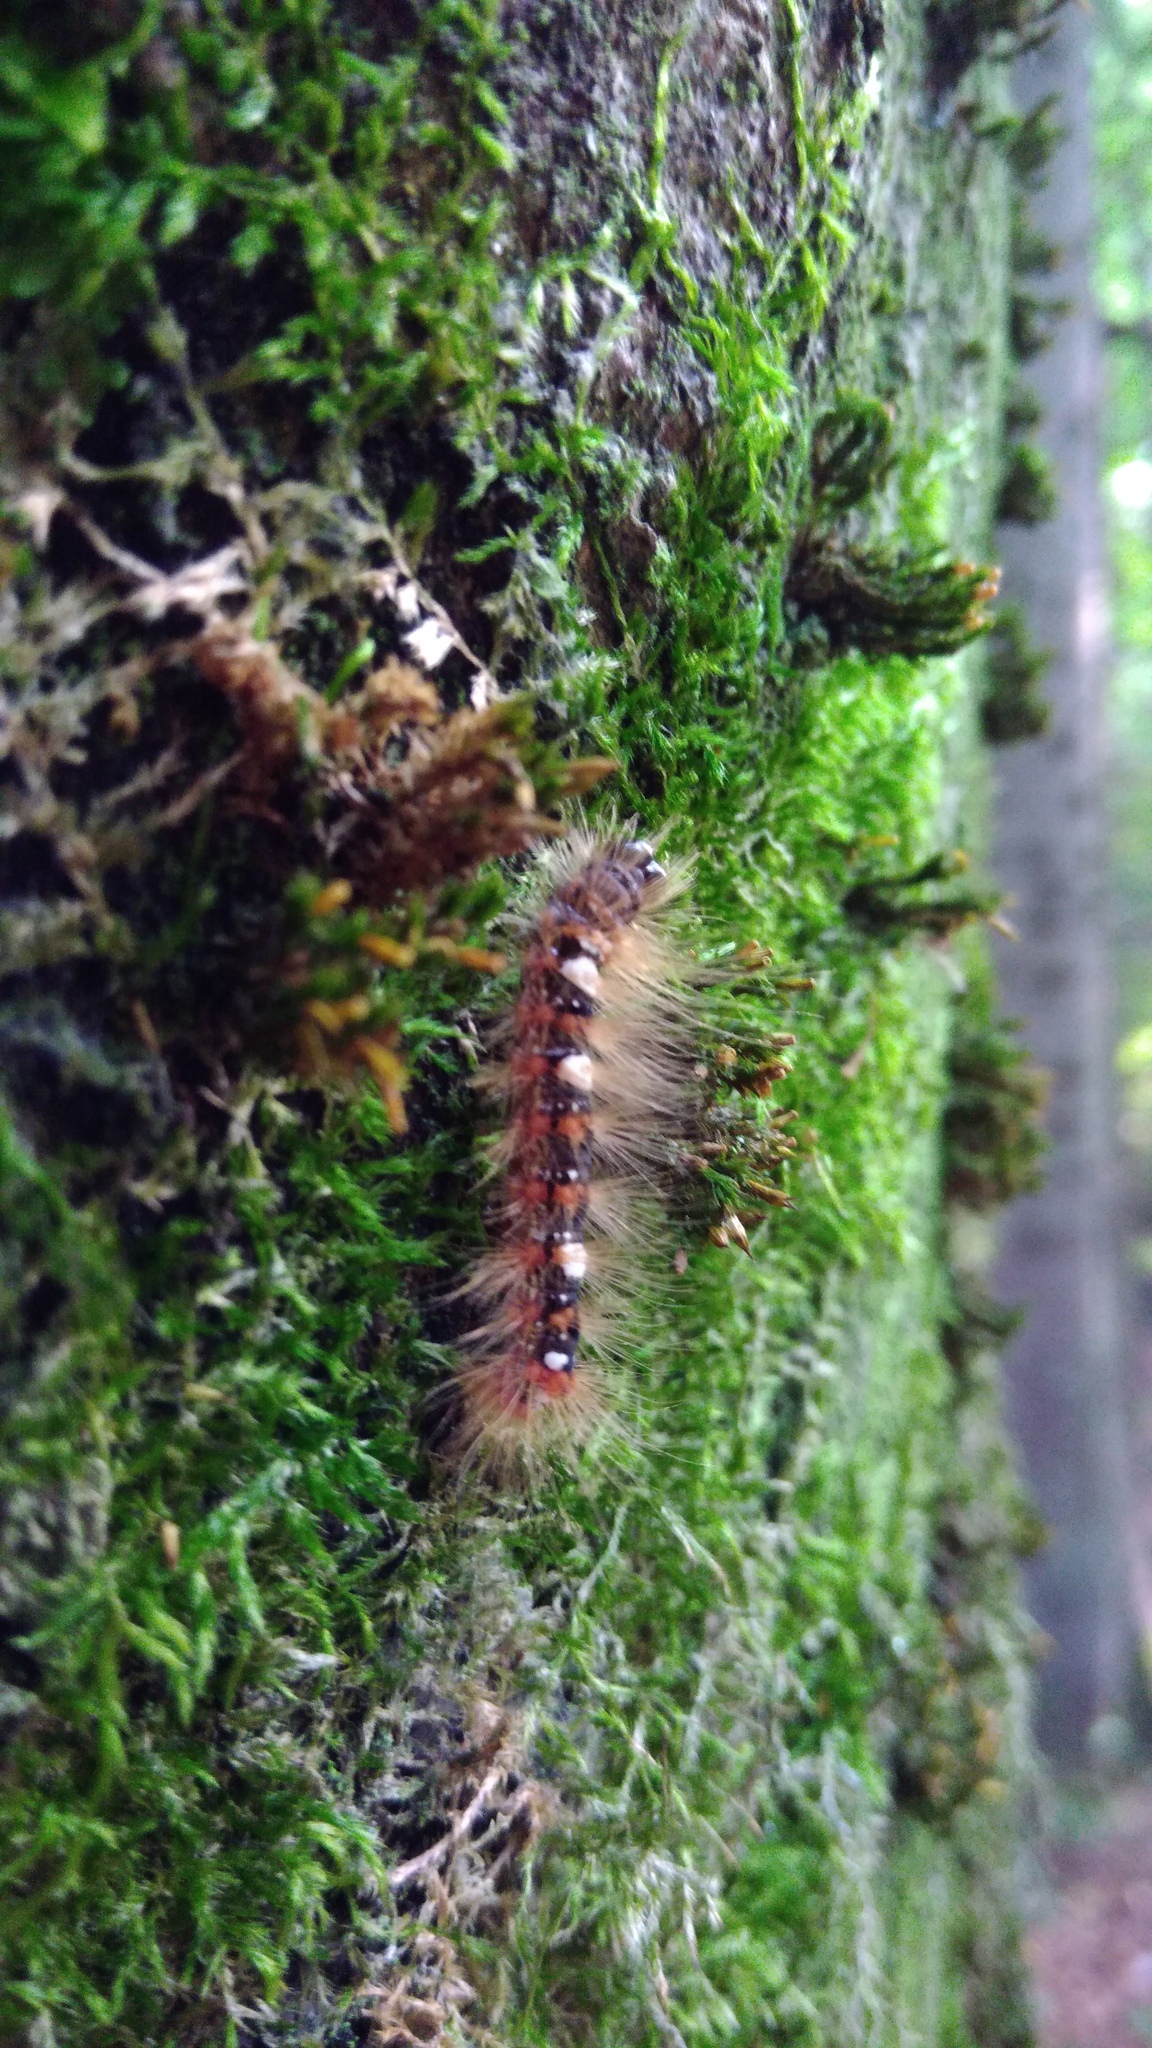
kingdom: Animalia
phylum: Arthropoda
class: Insecta
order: Lepidoptera
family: Noctuidae
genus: Moma
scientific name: Moma alpium
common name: Scarce merveille du jour
